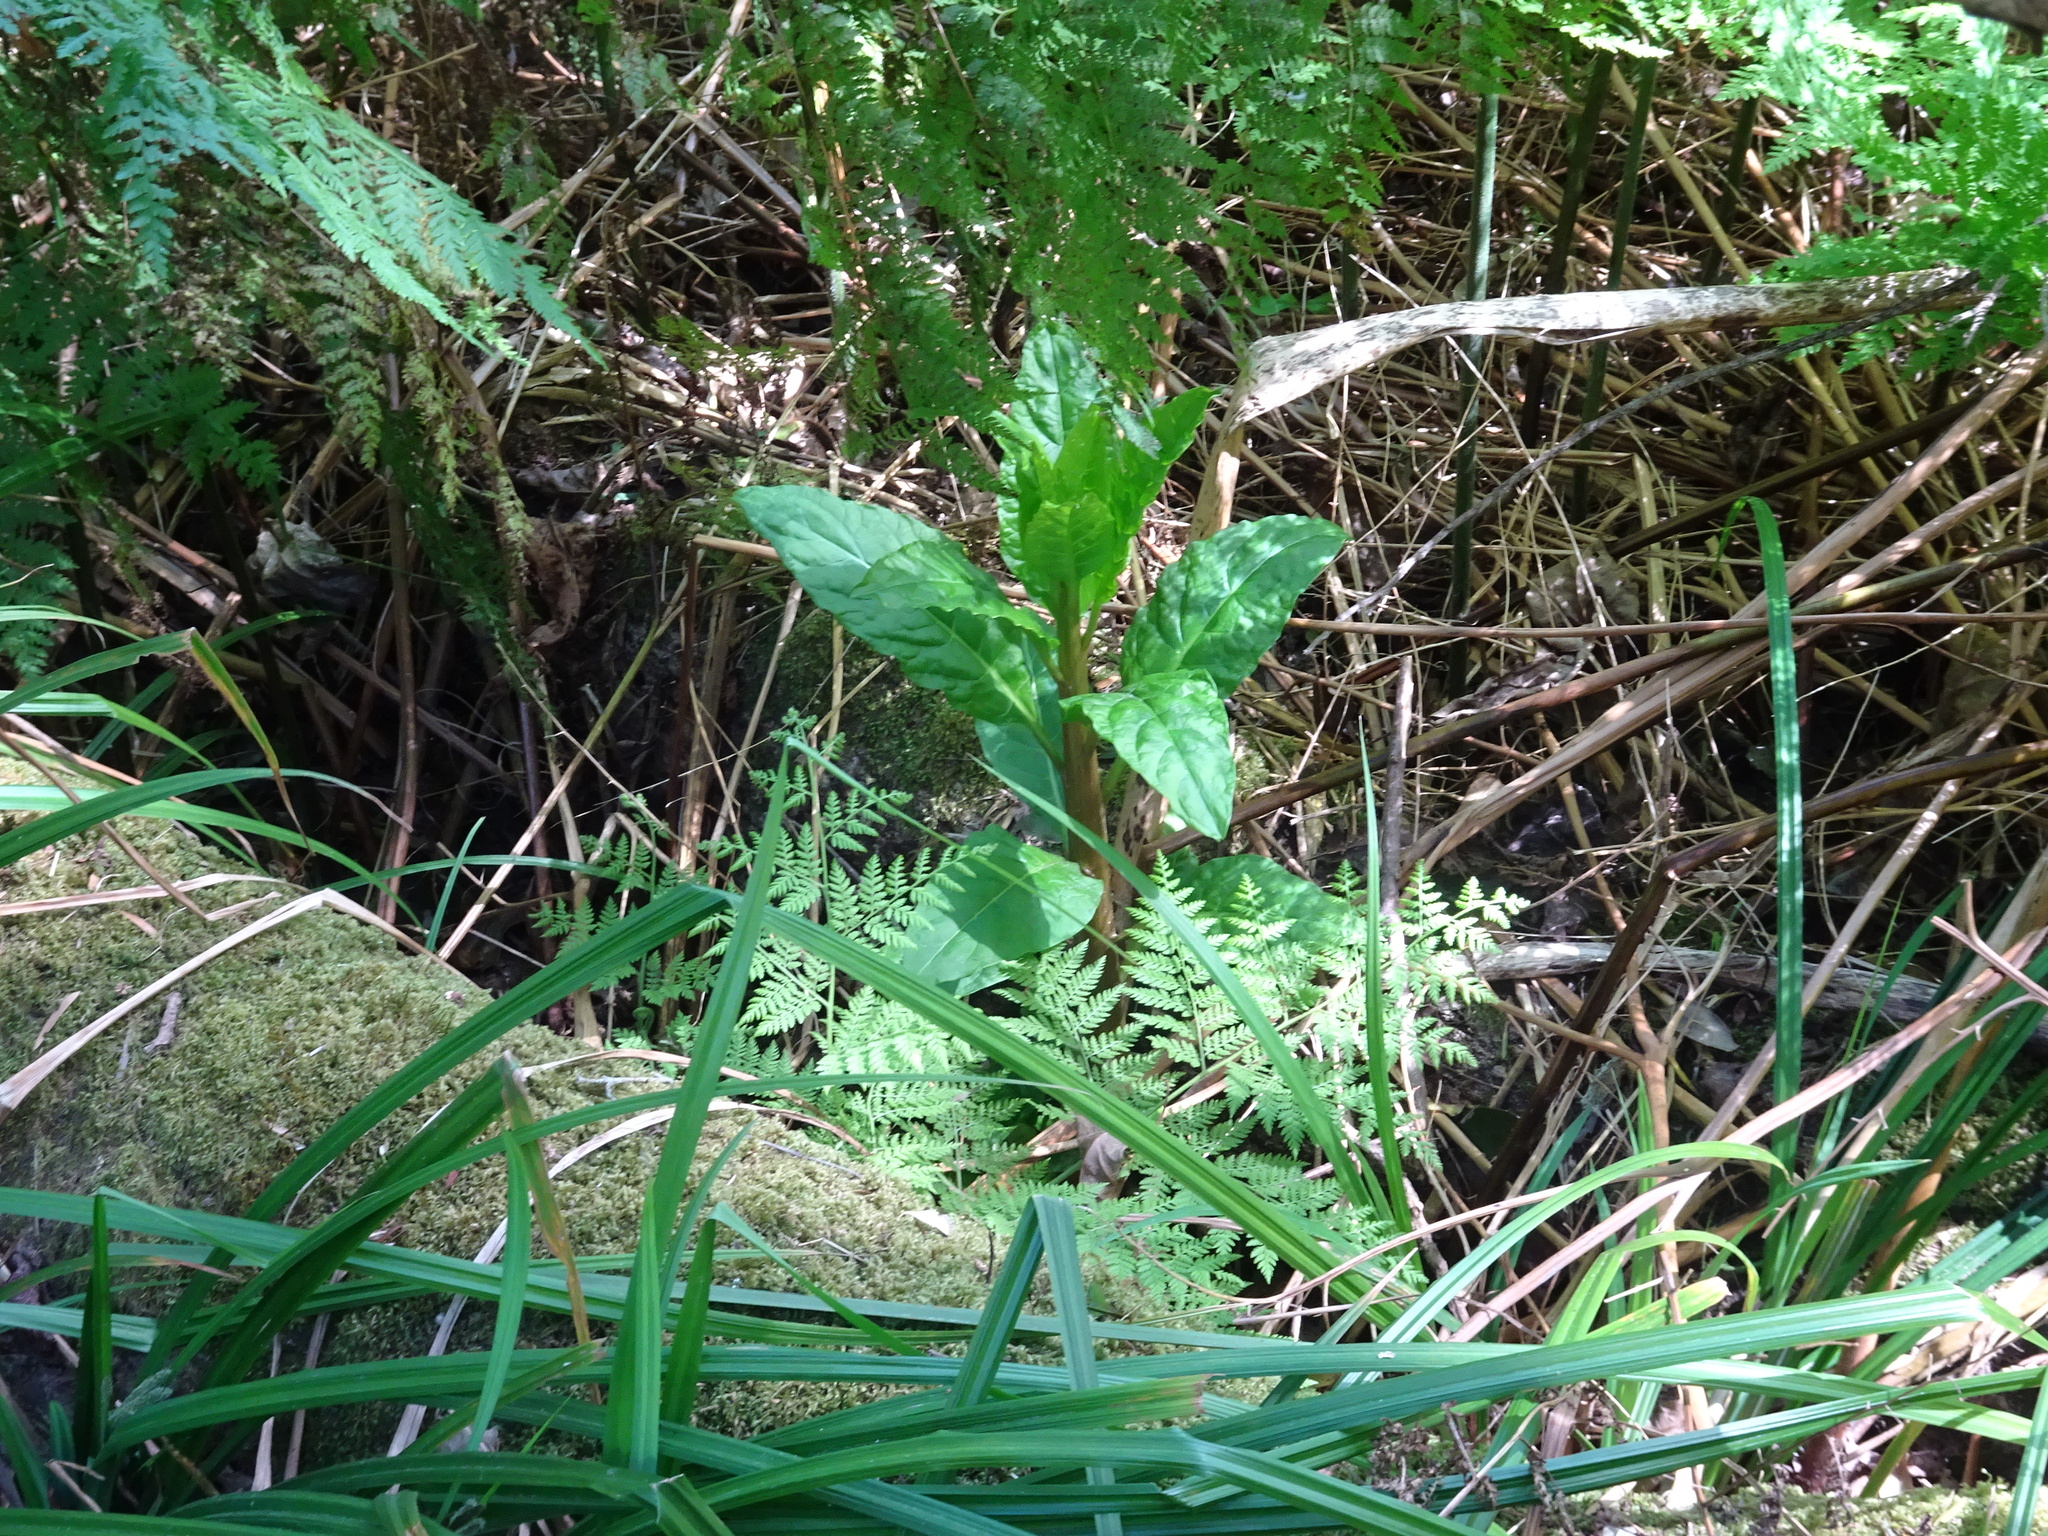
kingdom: Plantae
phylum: Tracheophyta
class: Magnoliopsida
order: Caryophyllales
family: Phytolaccaceae
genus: Phytolacca
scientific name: Phytolacca americana
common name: American pokeweed
